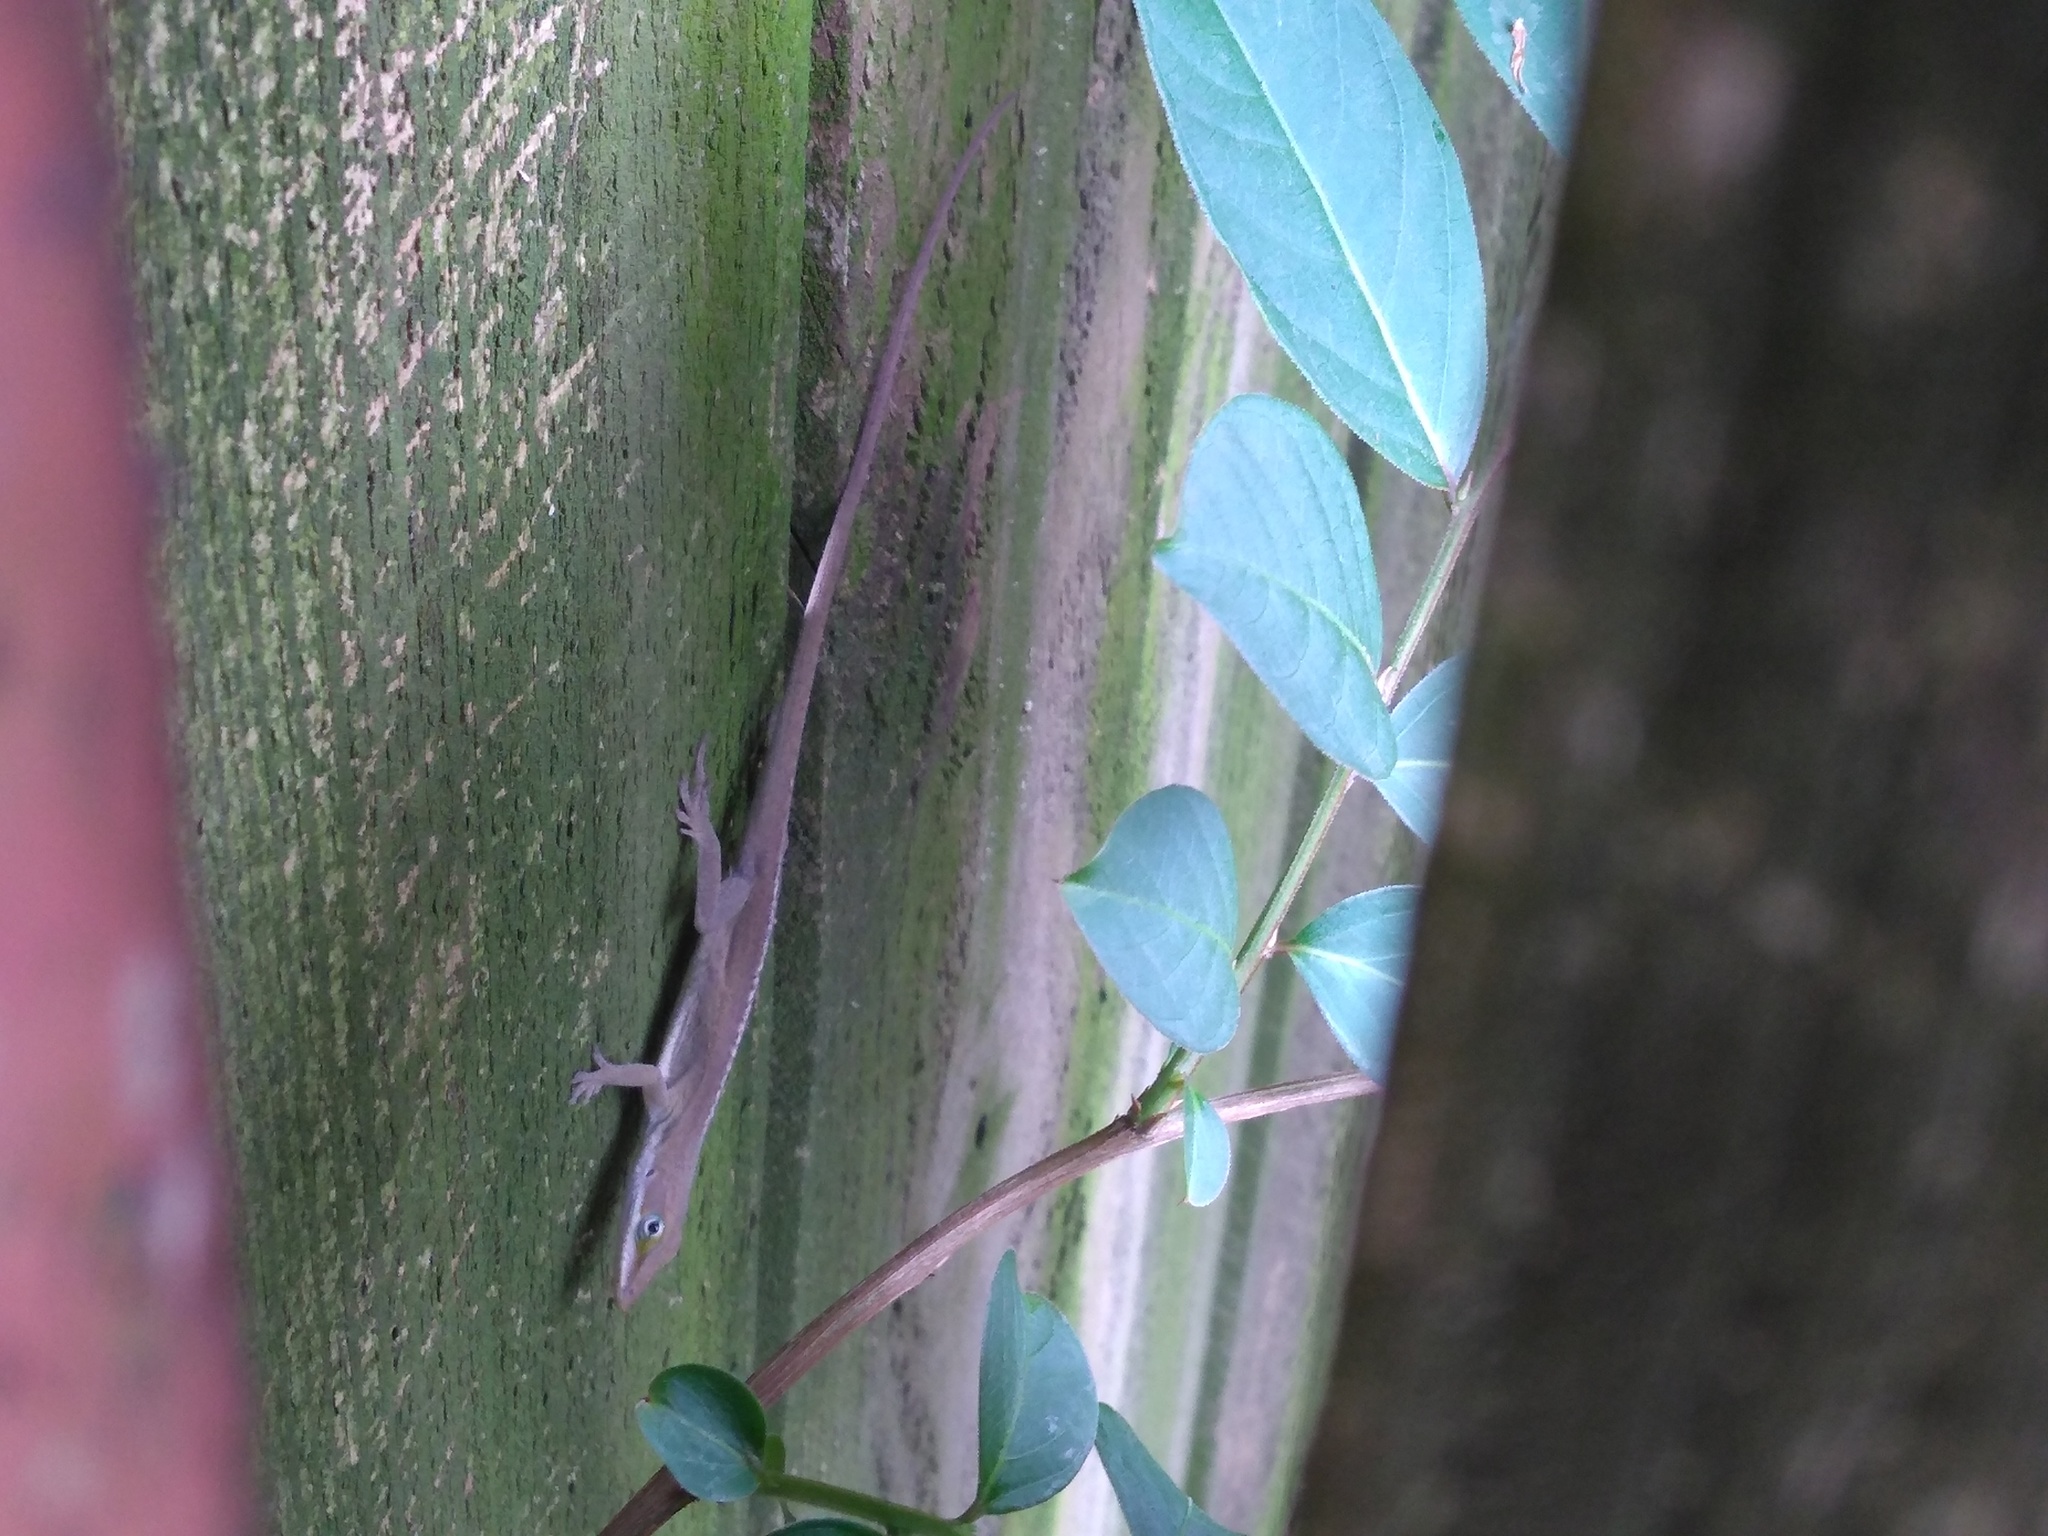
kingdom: Animalia
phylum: Chordata
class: Squamata
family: Dactyloidae
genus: Anolis
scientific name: Anolis carolinensis
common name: Green anole
